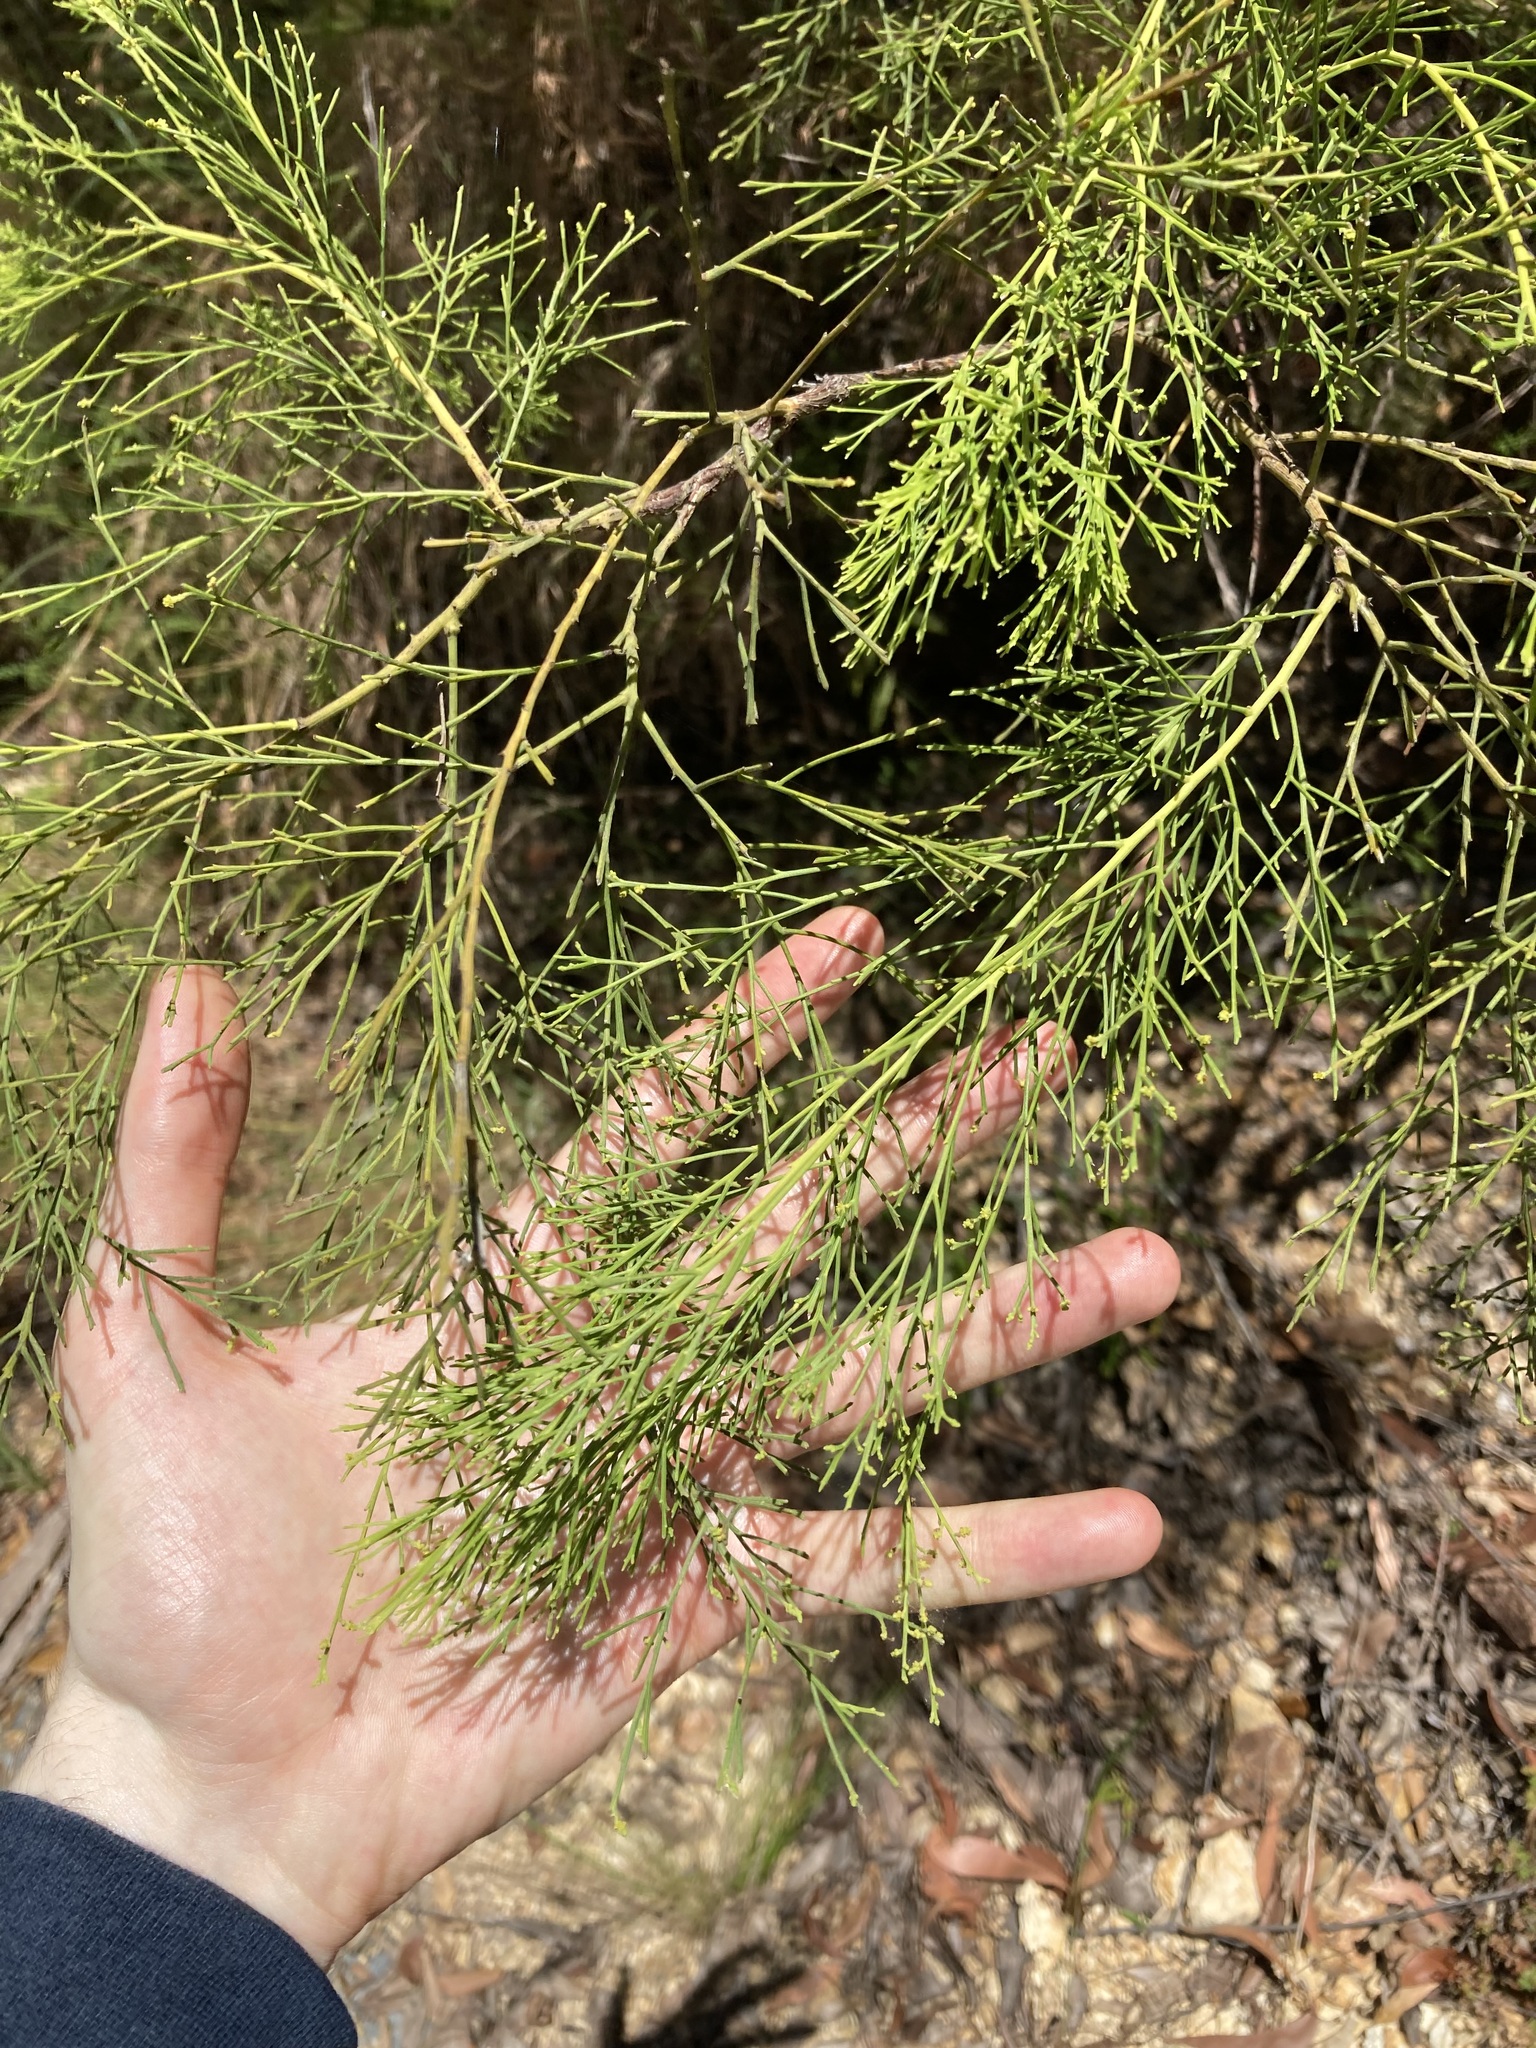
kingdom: Plantae
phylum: Tracheophyta
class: Magnoliopsida
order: Santalales
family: Santalaceae
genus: Exocarpos
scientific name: Exocarpos cupressiformis
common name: Cherry ballart
